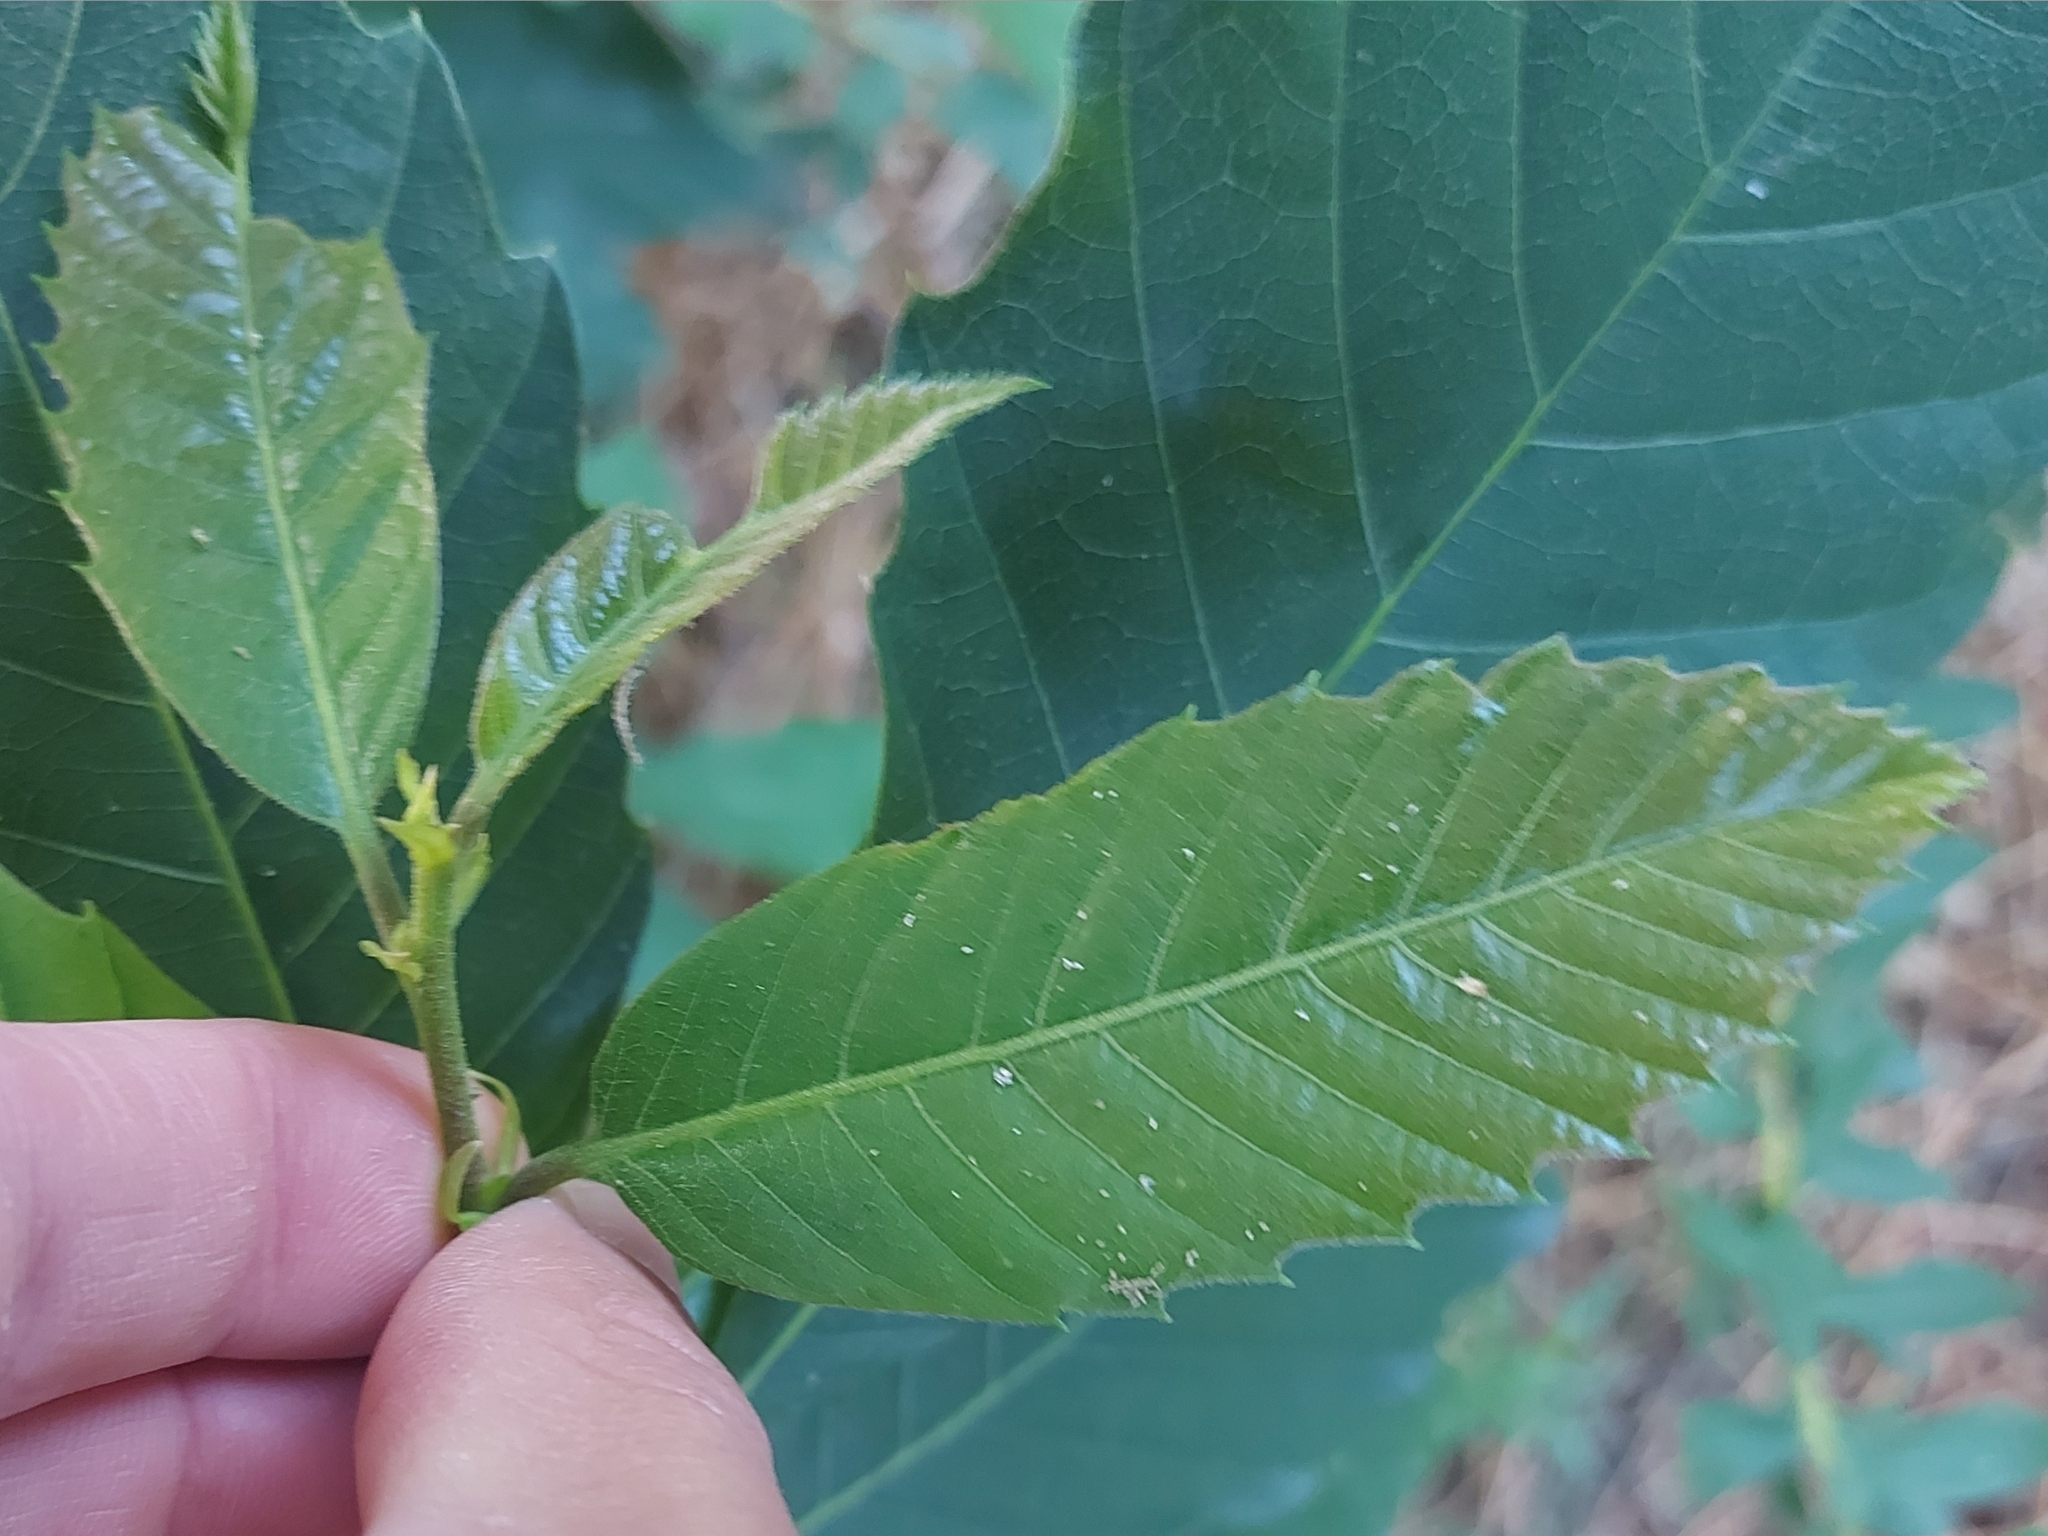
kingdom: Plantae
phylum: Tracheophyta
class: Magnoliopsida
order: Fagales
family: Fagaceae
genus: Castanea
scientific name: Castanea sativa
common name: Sweet chestnut
